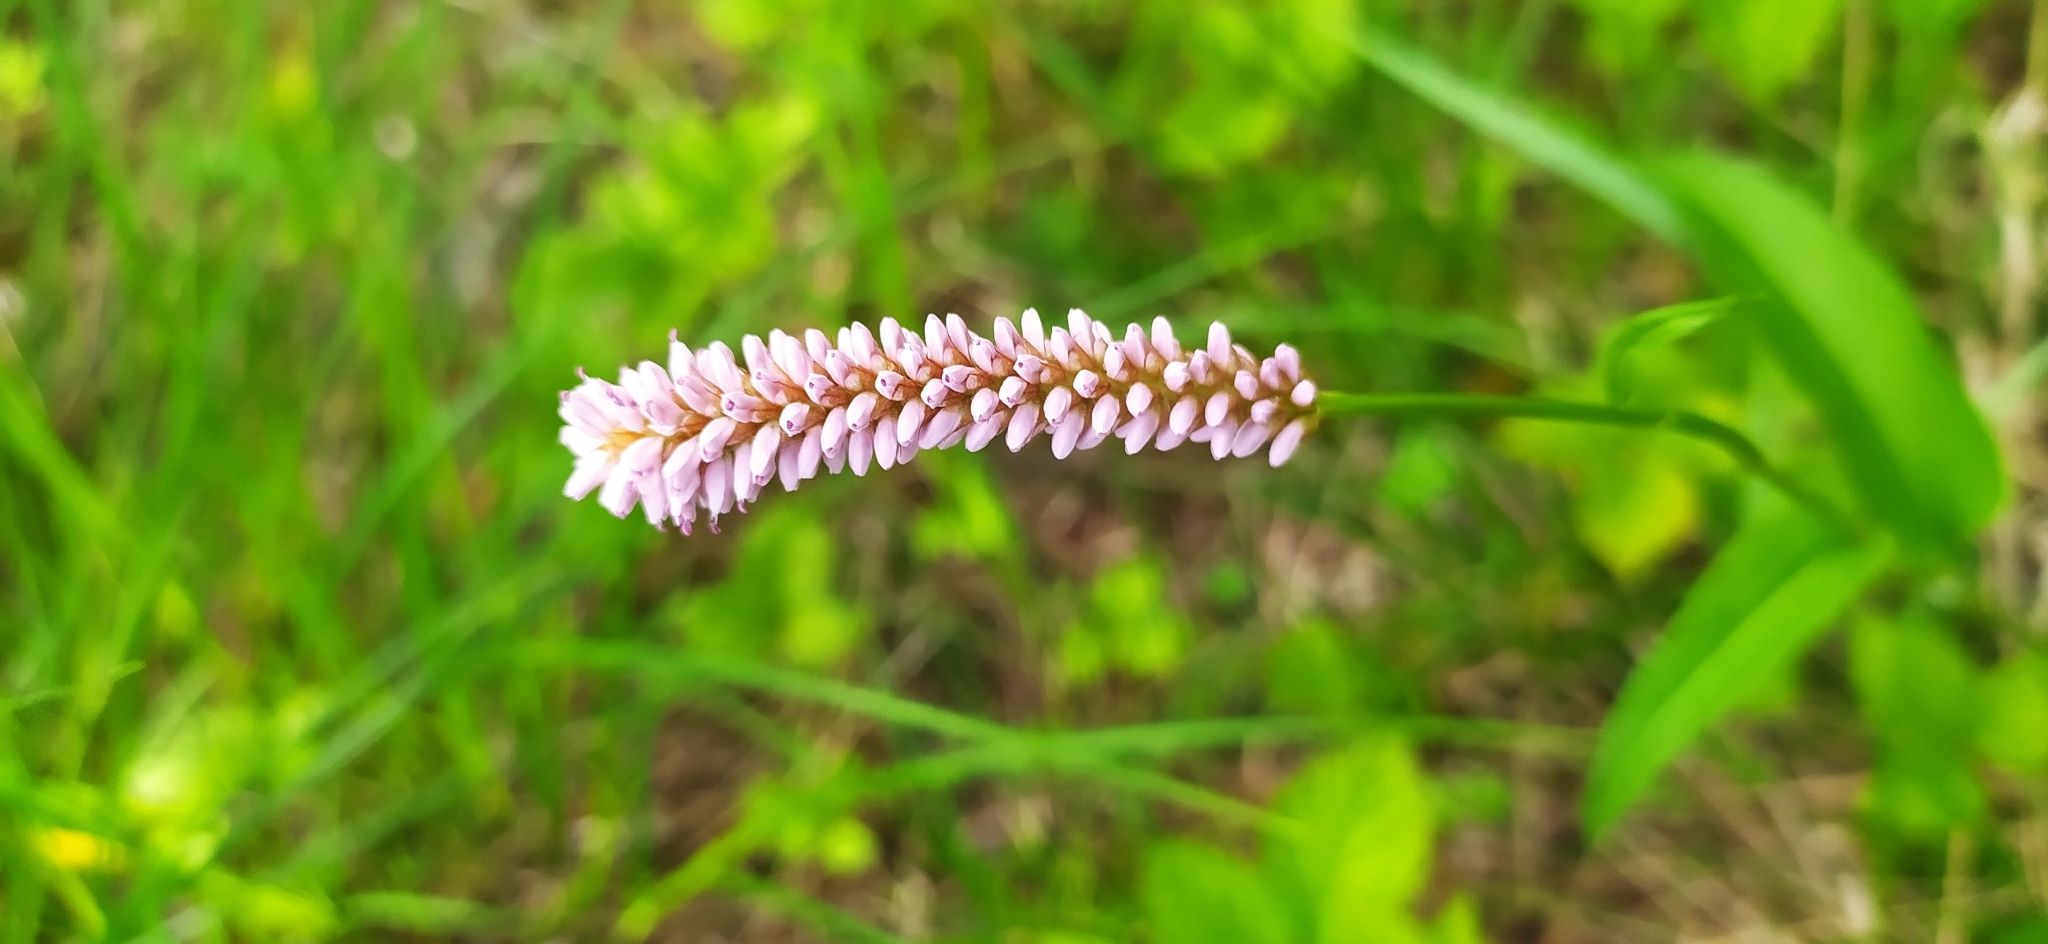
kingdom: Plantae
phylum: Tracheophyta
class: Magnoliopsida
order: Caryophyllales
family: Polygonaceae
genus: Bistorta
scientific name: Bistorta officinalis
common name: Common bistort
